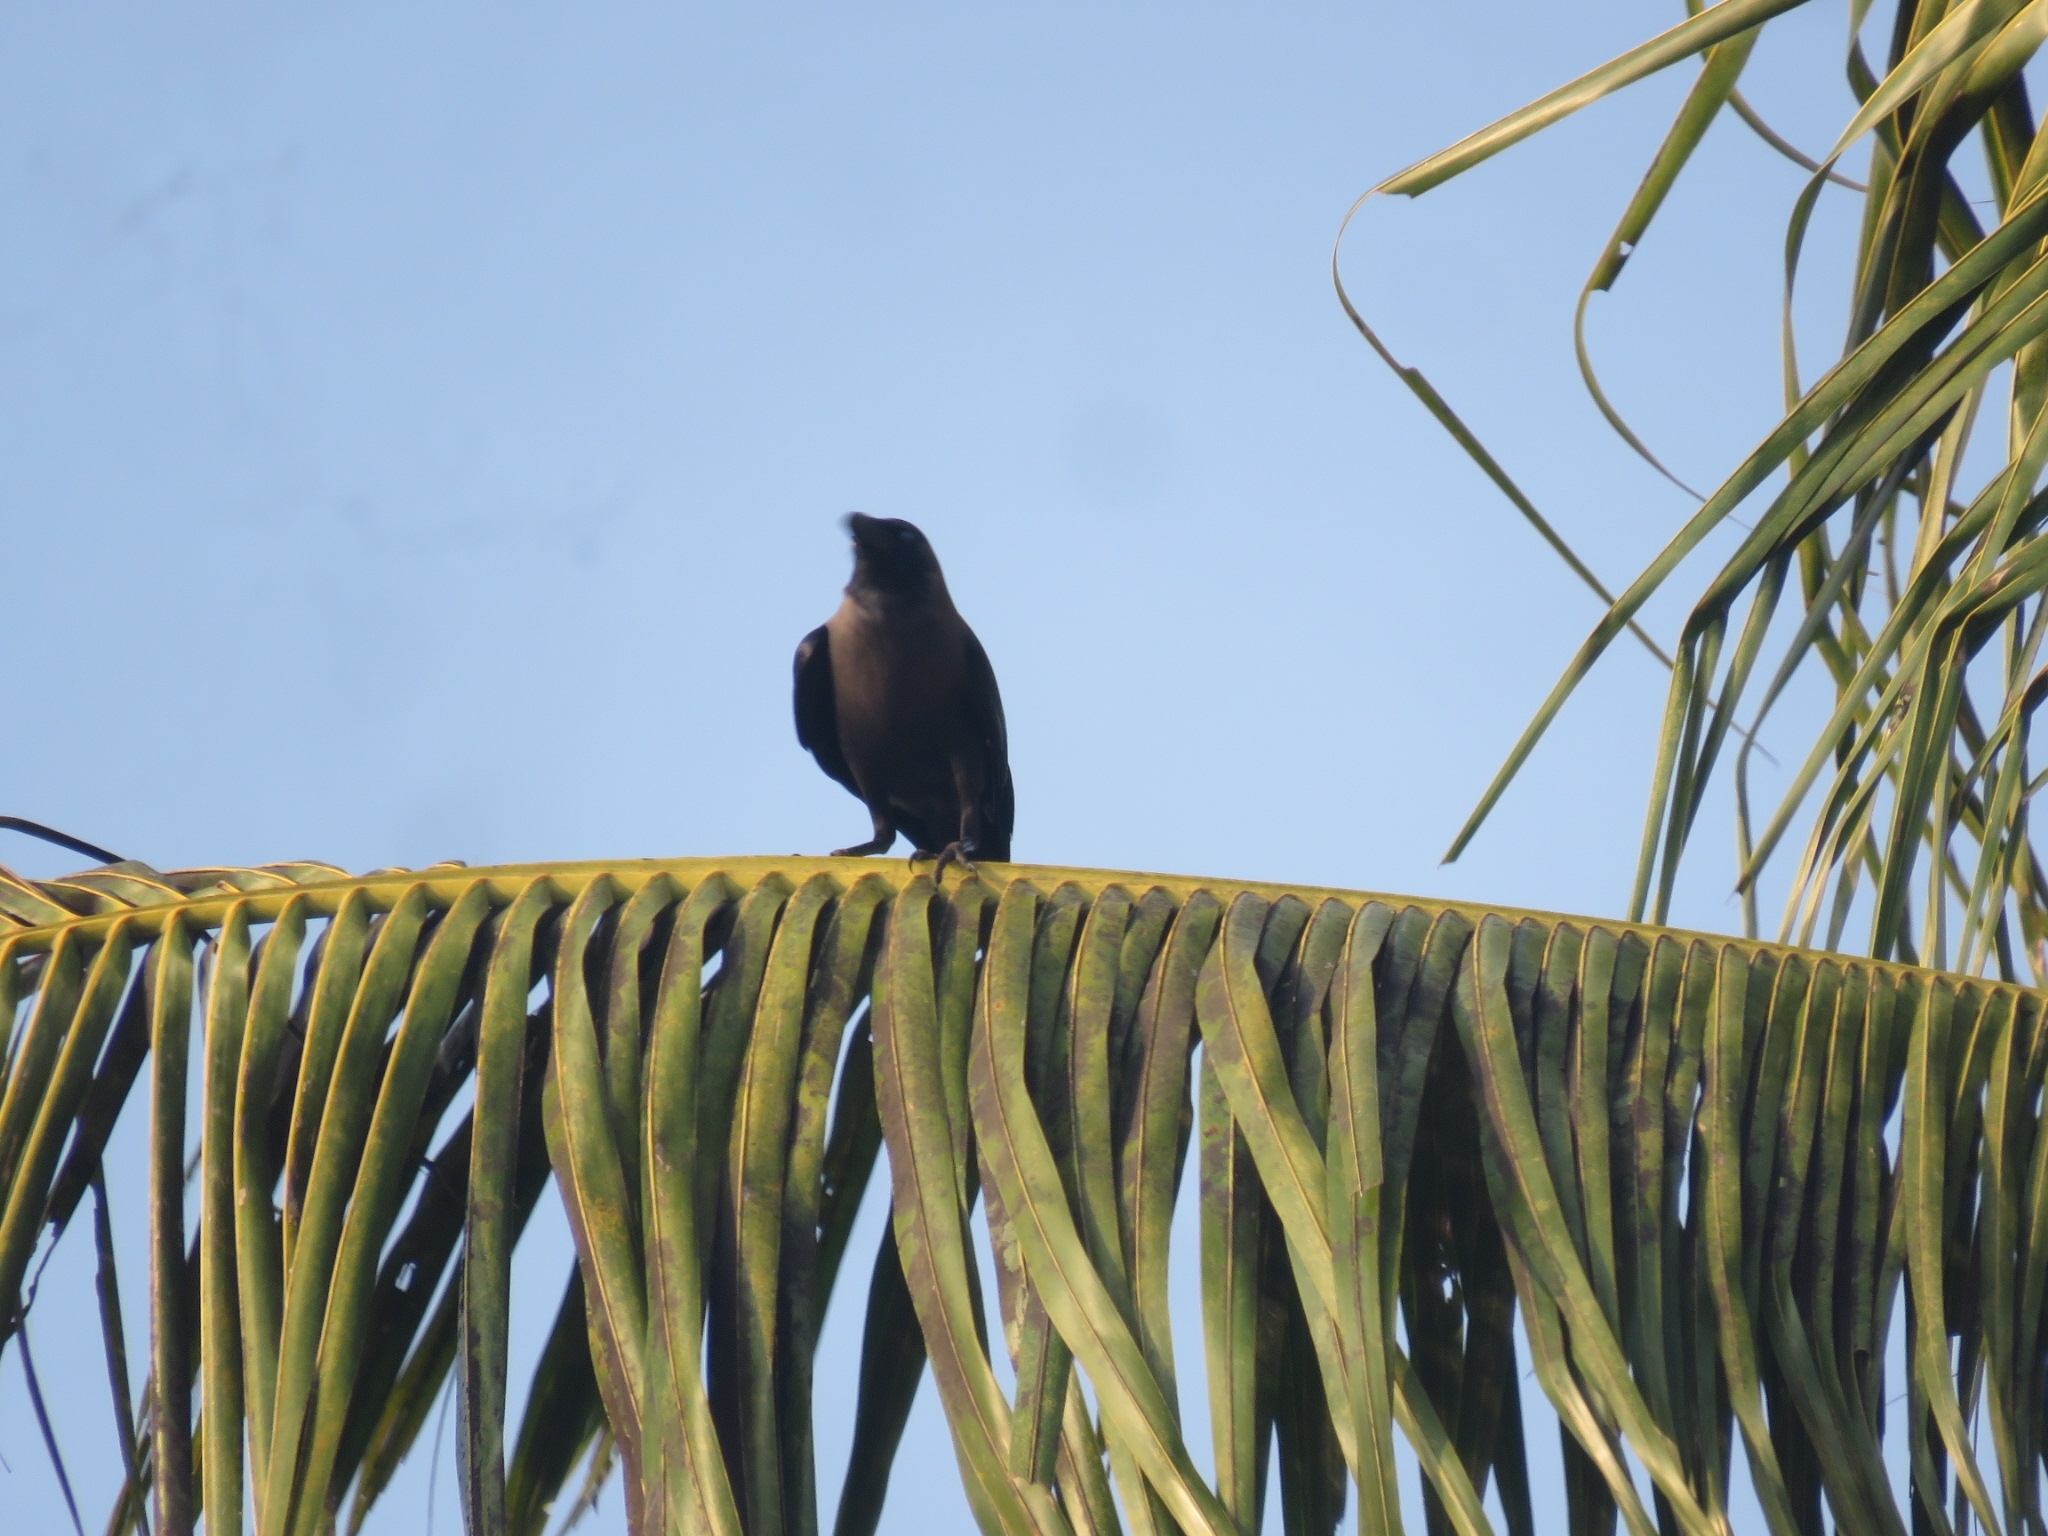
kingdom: Animalia
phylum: Chordata
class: Aves
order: Passeriformes
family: Corvidae
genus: Corvus
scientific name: Corvus splendens
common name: House crow
